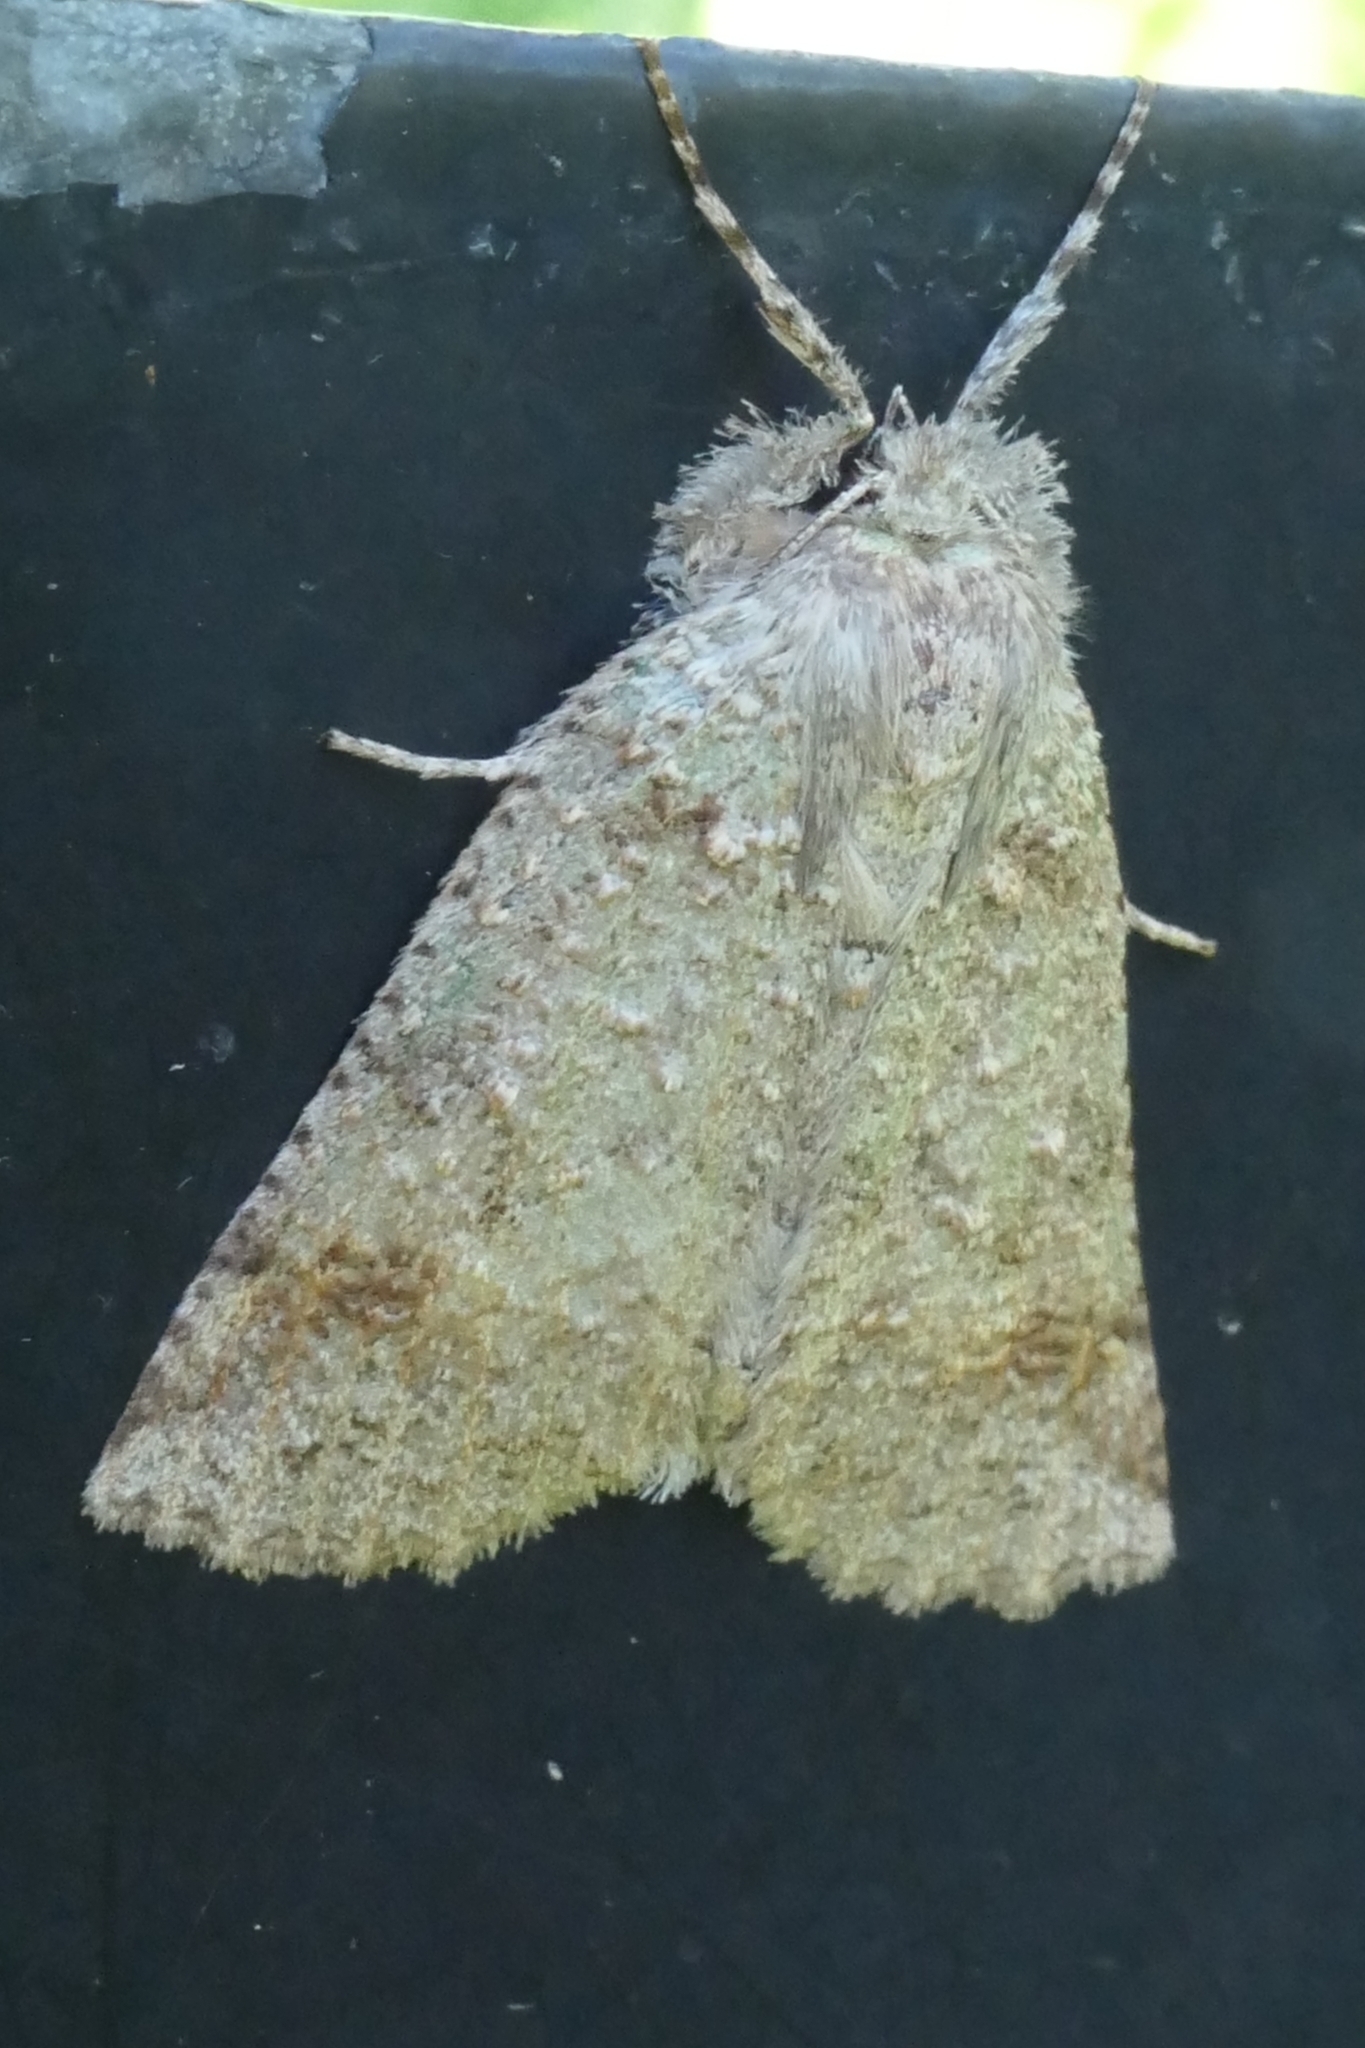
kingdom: Animalia
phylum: Arthropoda
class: Insecta
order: Lepidoptera
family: Geometridae
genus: Declana
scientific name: Declana floccosa
